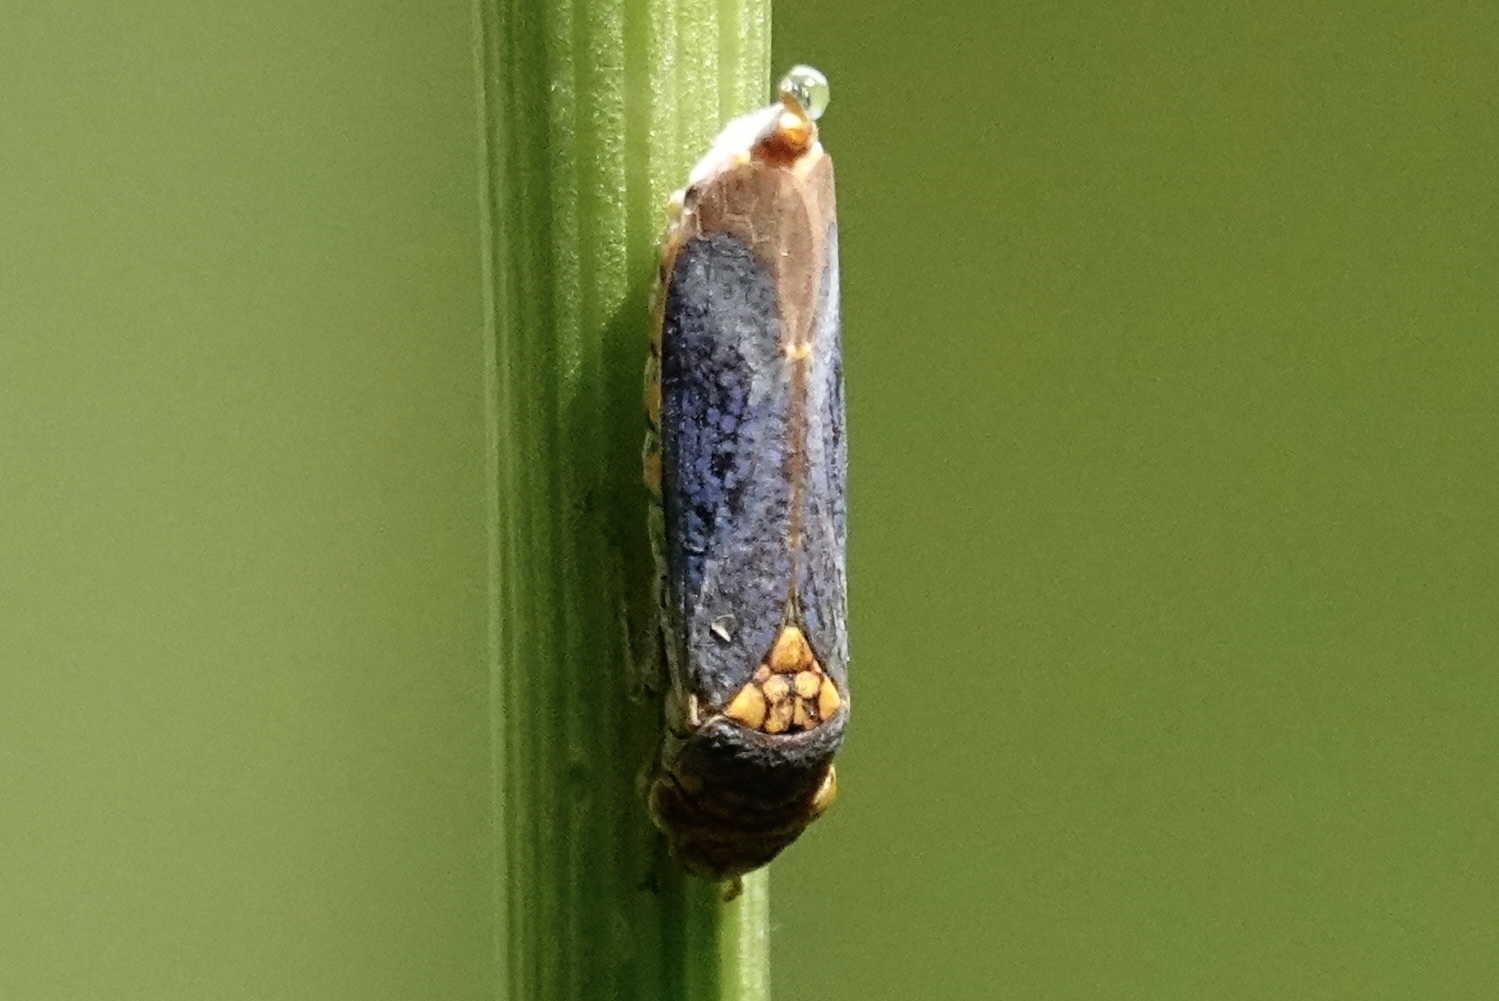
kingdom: Animalia
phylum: Arthropoda
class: Insecta
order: Hemiptera
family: Cicadellidae
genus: Oncometopia
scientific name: Oncometopia orbona
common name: Broad-headed sharpshooter
